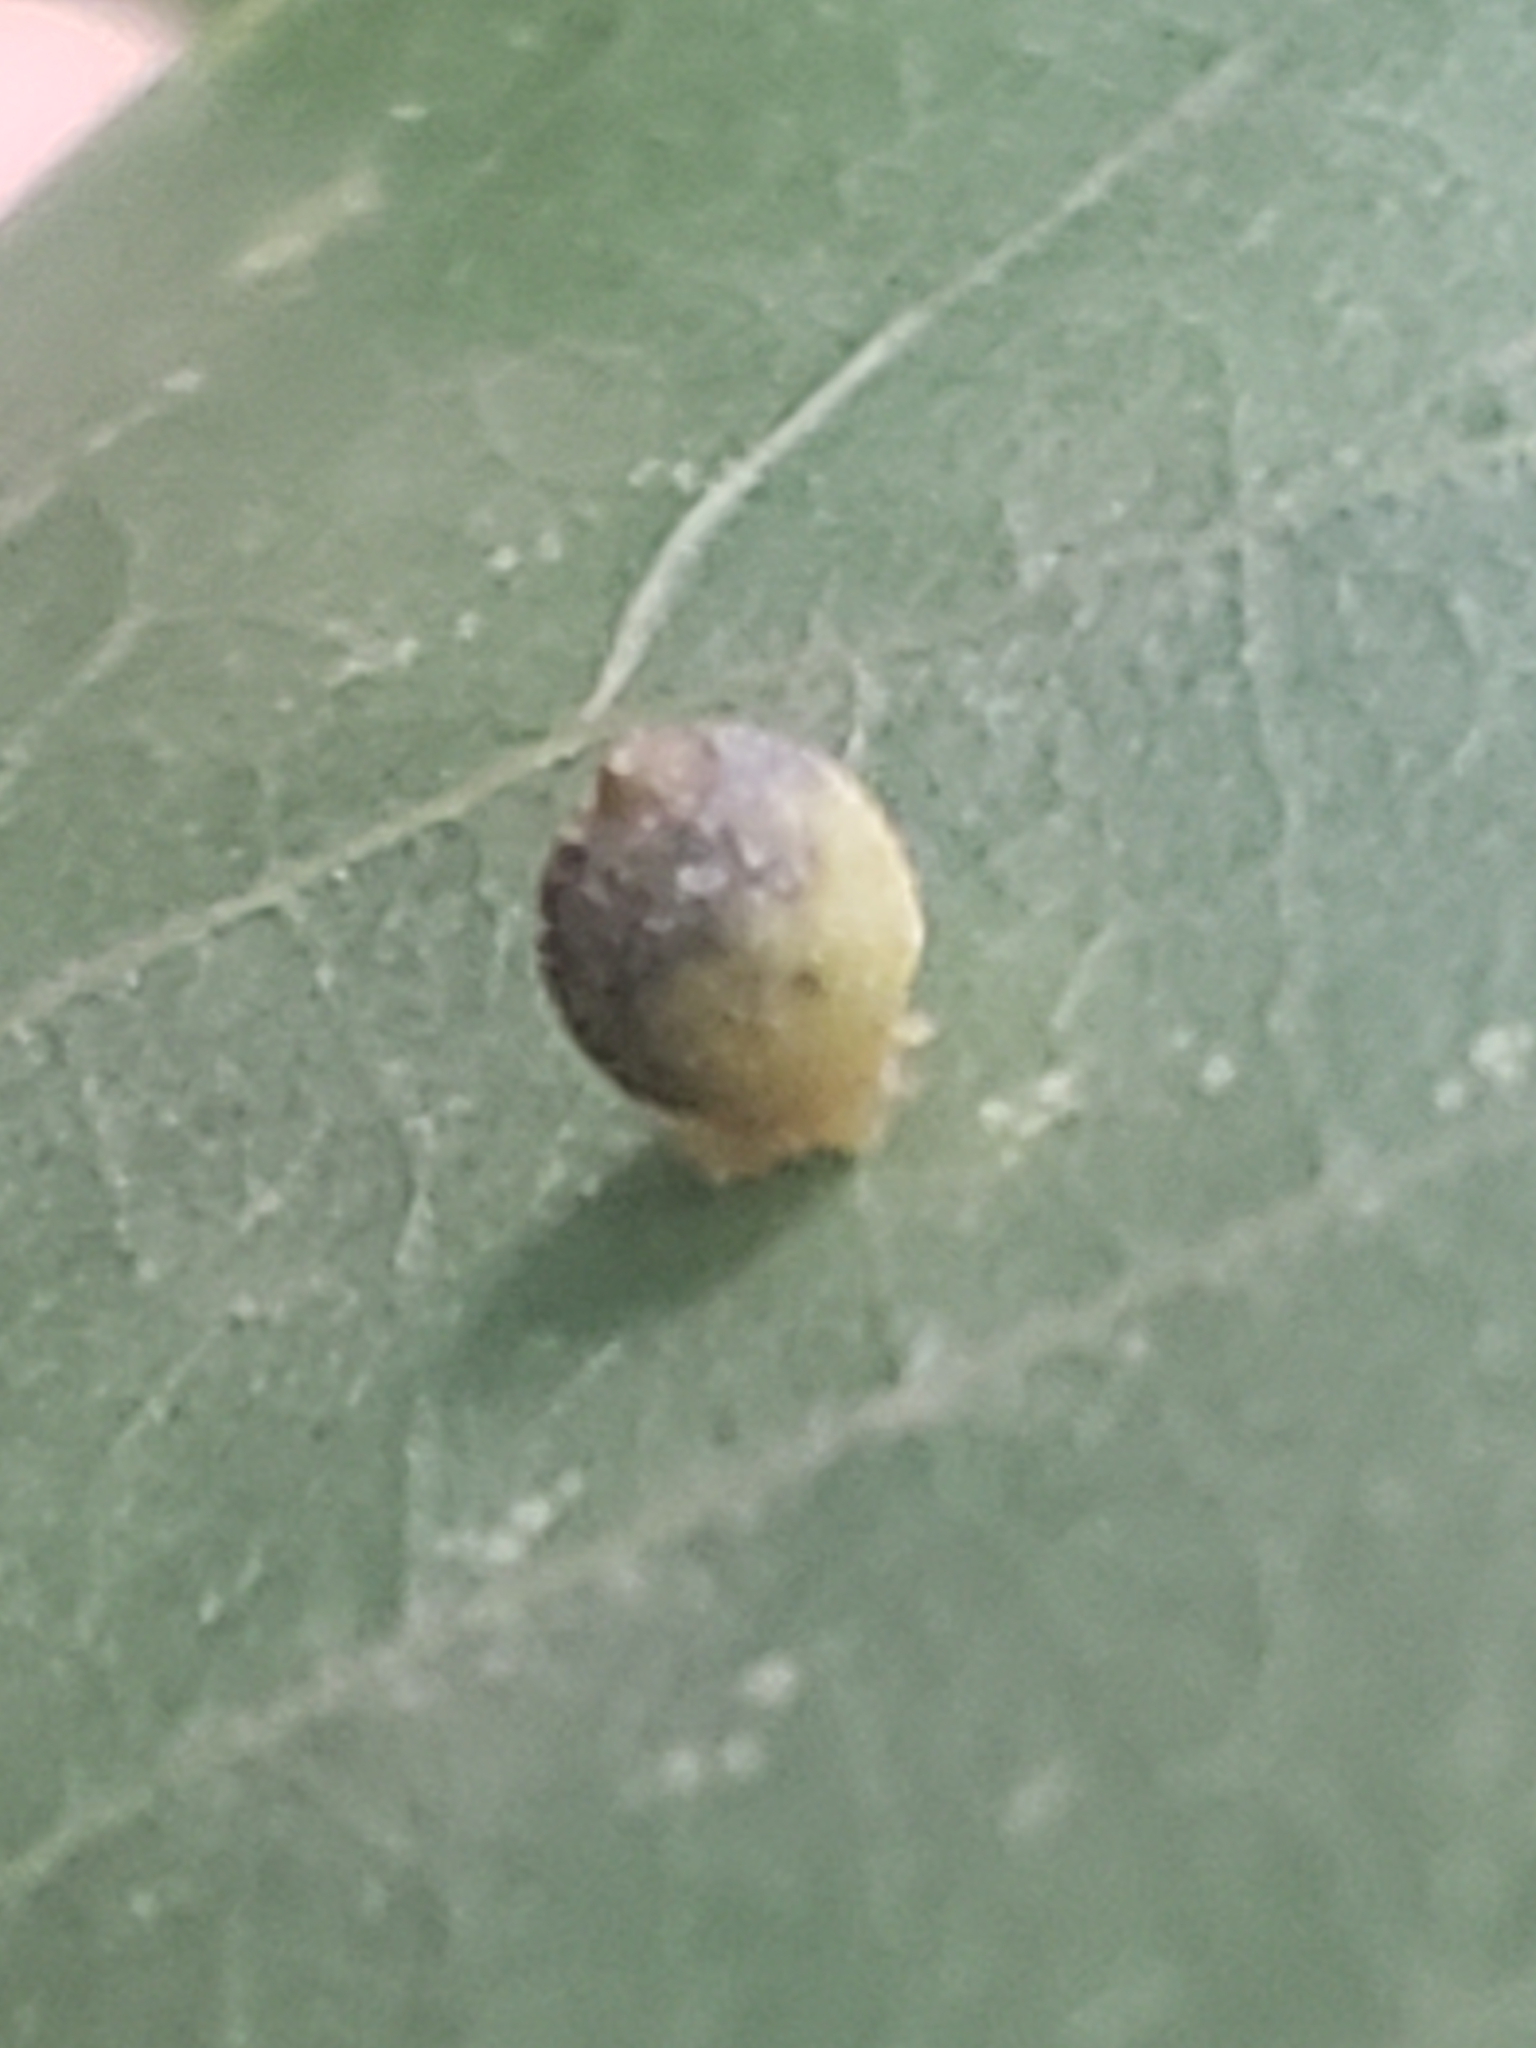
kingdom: Animalia
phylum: Arthropoda
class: Insecta
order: Diptera
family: Cecidomyiidae
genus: Caryomyia
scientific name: Caryomyia viscidolium
